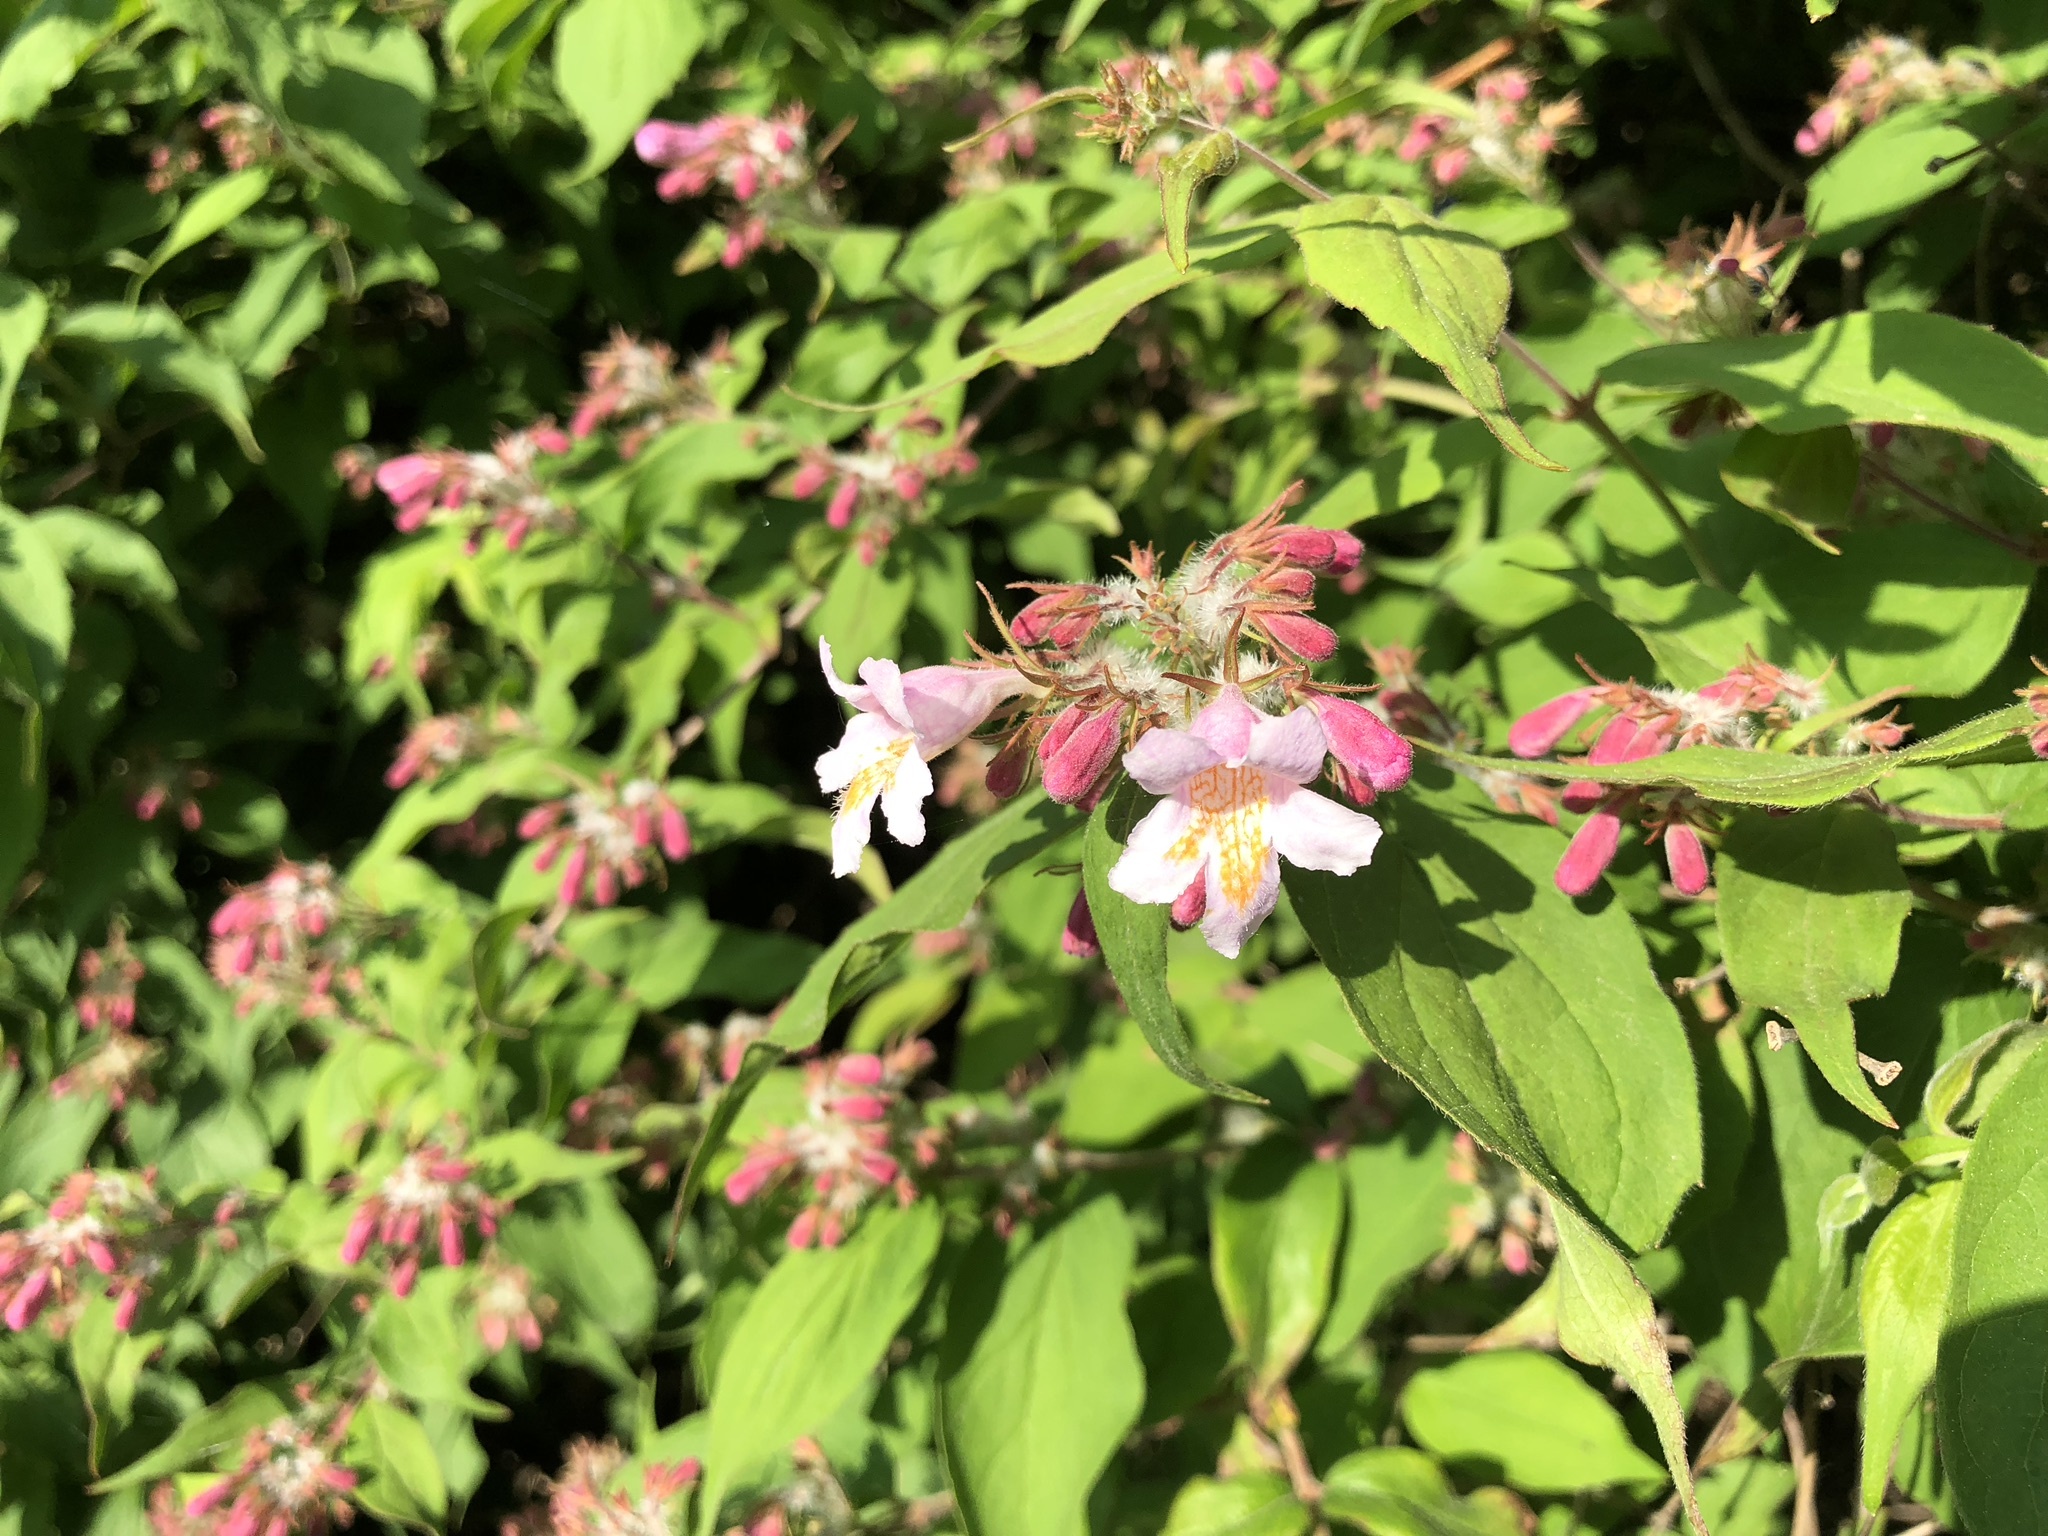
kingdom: Plantae
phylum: Tracheophyta
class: Magnoliopsida
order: Dipsacales
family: Caprifoliaceae
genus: Kolkwitzia
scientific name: Kolkwitzia amabilis
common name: Beautybush
